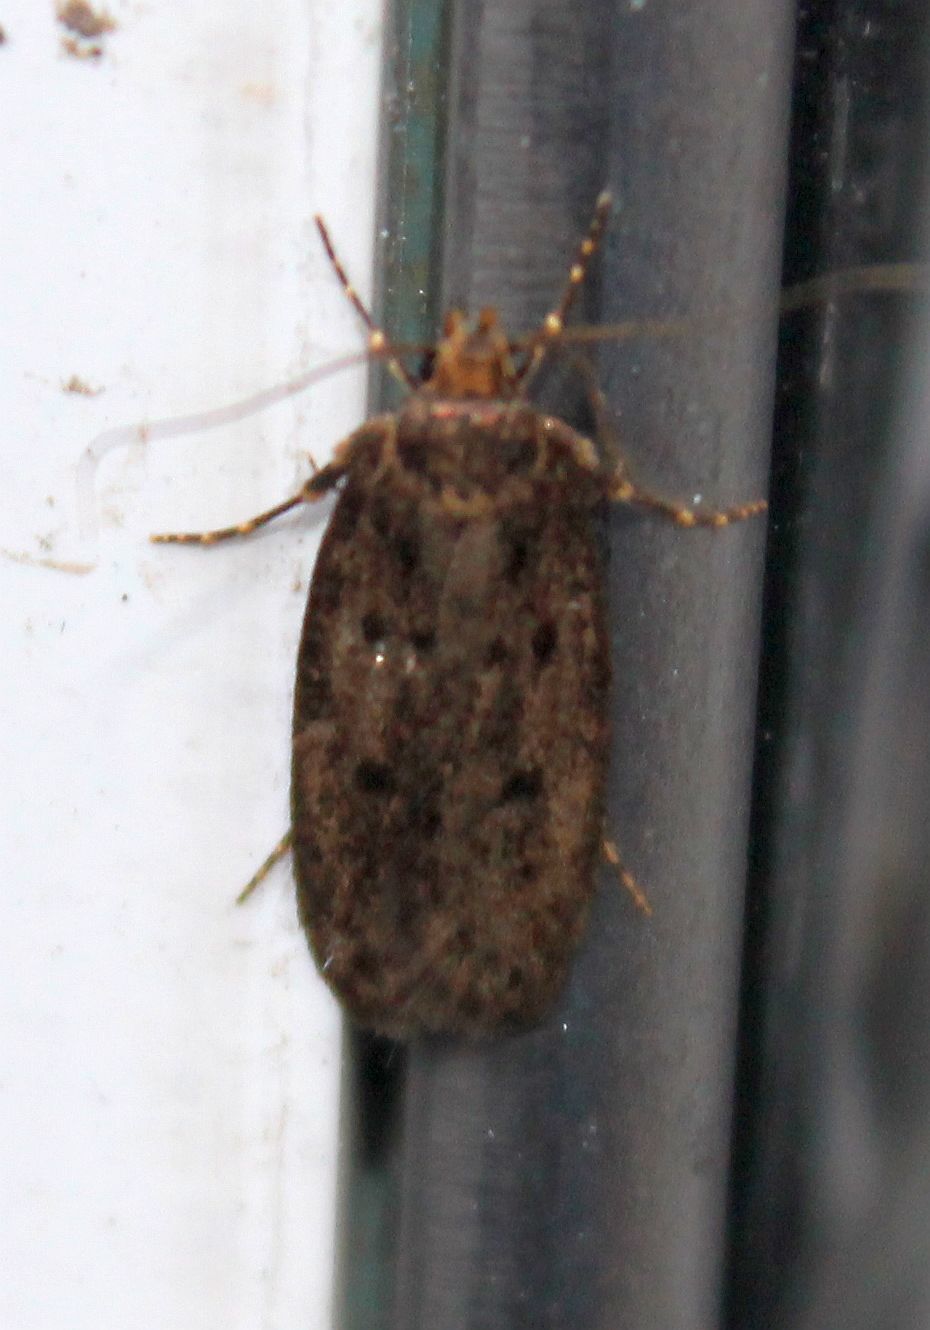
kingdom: Animalia
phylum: Arthropoda
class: Insecta
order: Lepidoptera
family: Oecophoridae
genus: Hofmannophila
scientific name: Hofmannophila pseudospretella
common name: Brown house moth
